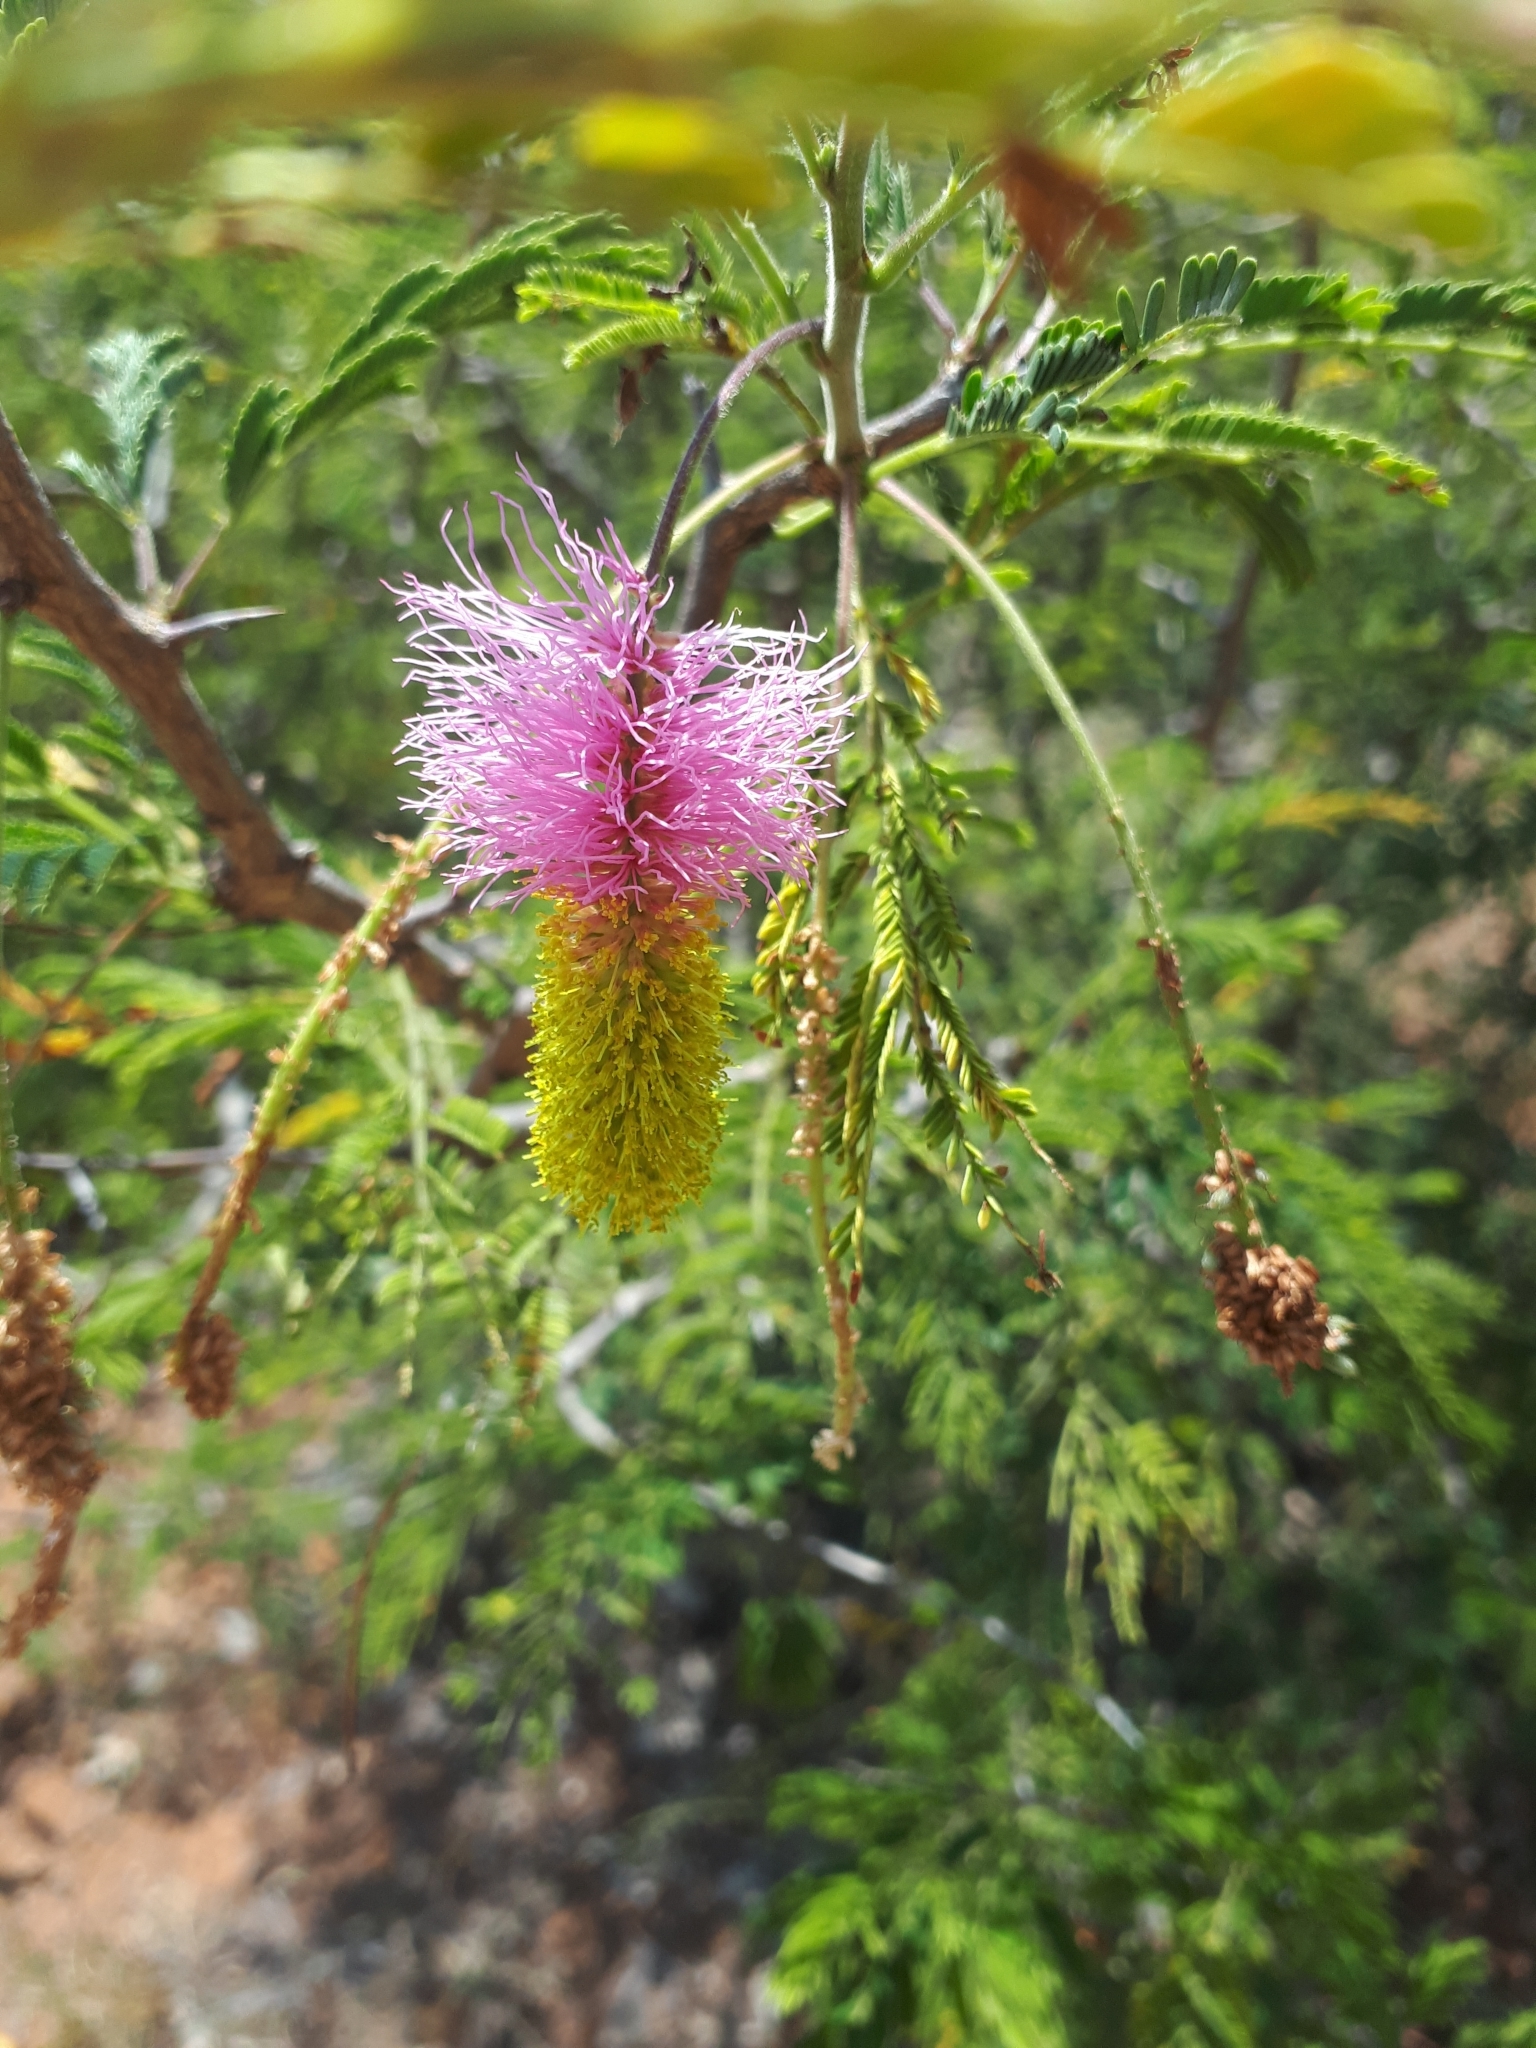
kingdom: Plantae
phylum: Tracheophyta
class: Magnoliopsida
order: Fabales
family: Fabaceae
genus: Dichrostachys
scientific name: Dichrostachys cinerea
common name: Sicklebush
